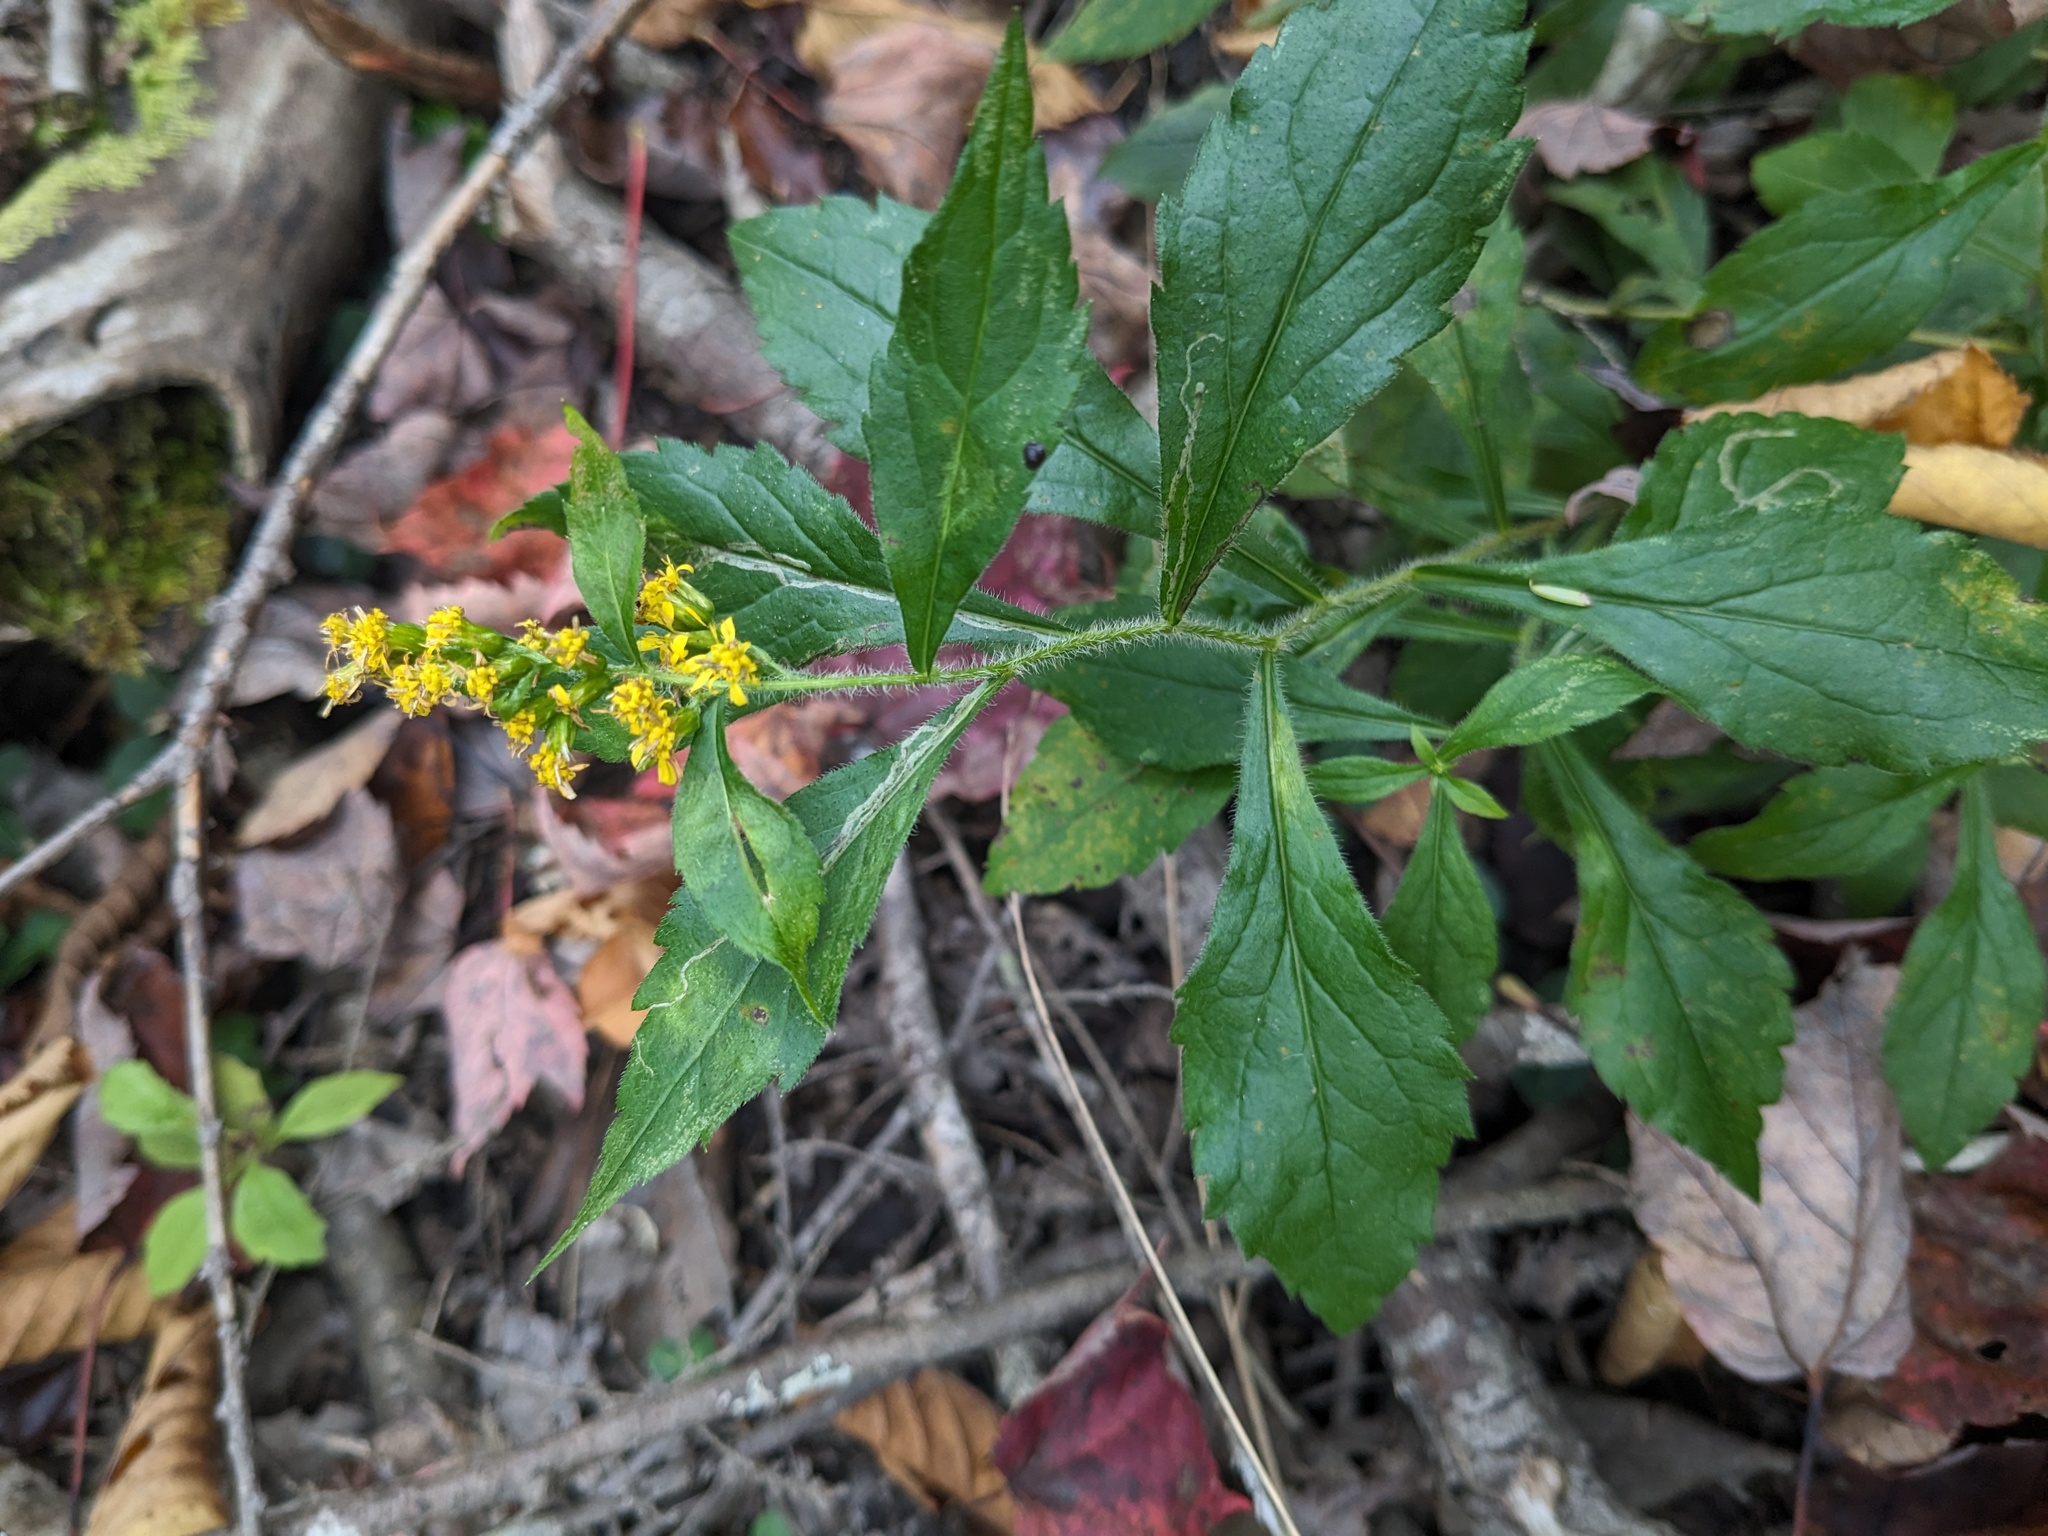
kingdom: Plantae
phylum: Tracheophyta
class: Magnoliopsida
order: Asterales
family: Asteraceae
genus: Solidago
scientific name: Solidago rugosa
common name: Rough-stemmed goldenrod
